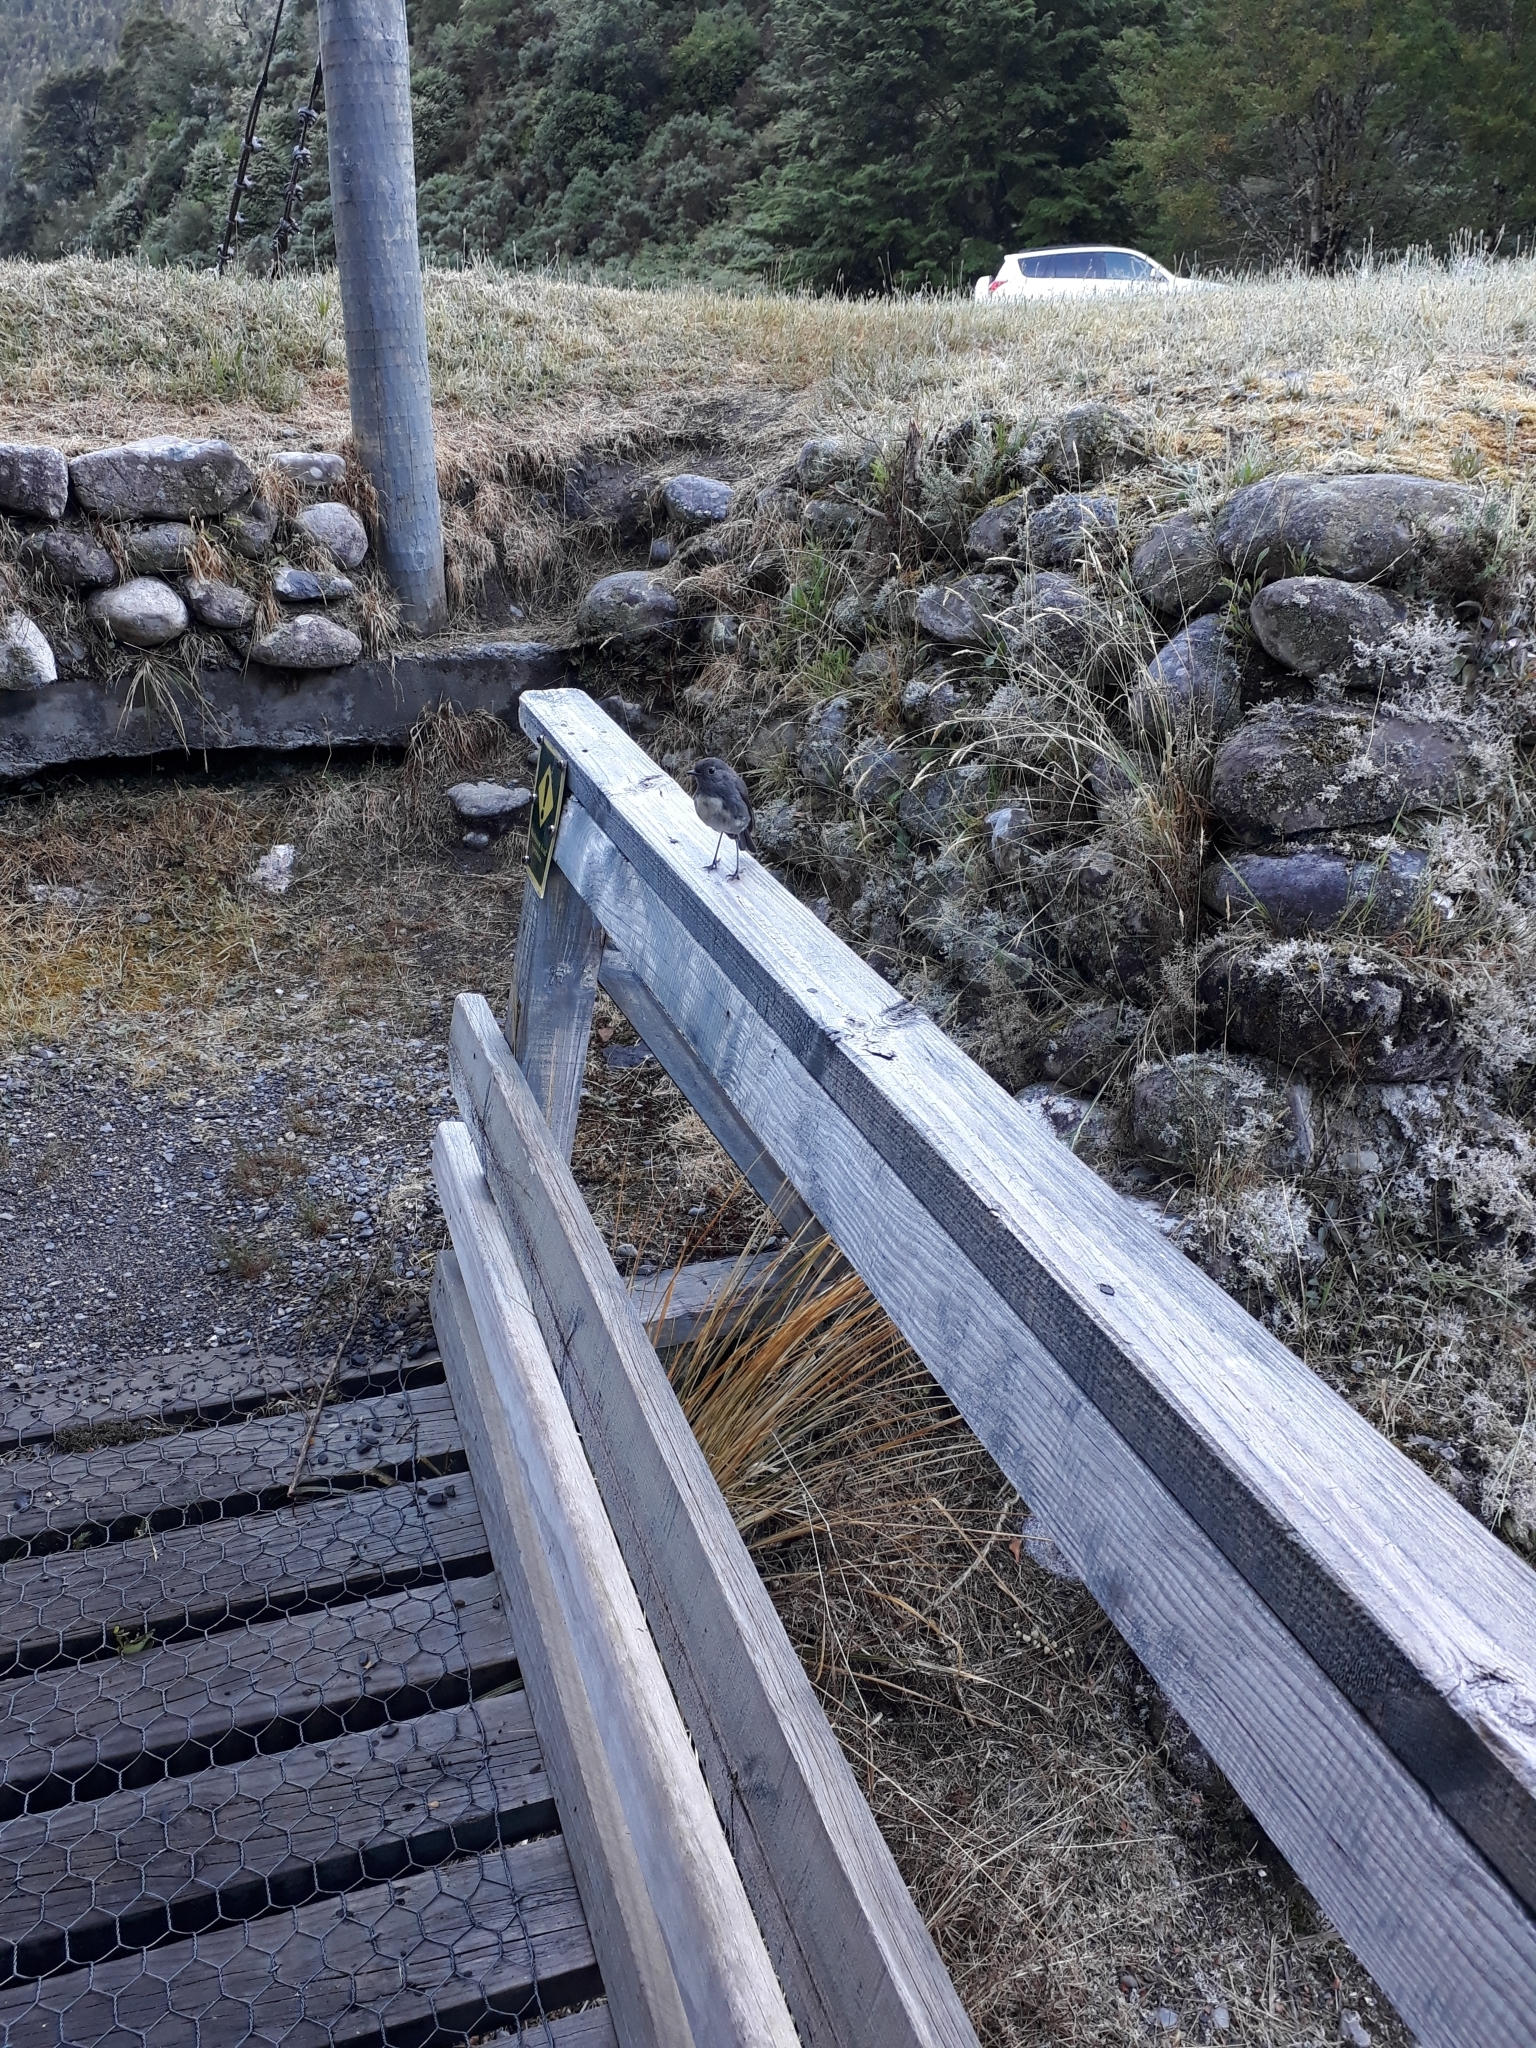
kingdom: Animalia
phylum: Chordata
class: Aves
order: Passeriformes
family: Petroicidae
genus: Petroica
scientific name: Petroica australis
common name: New zealand robin
